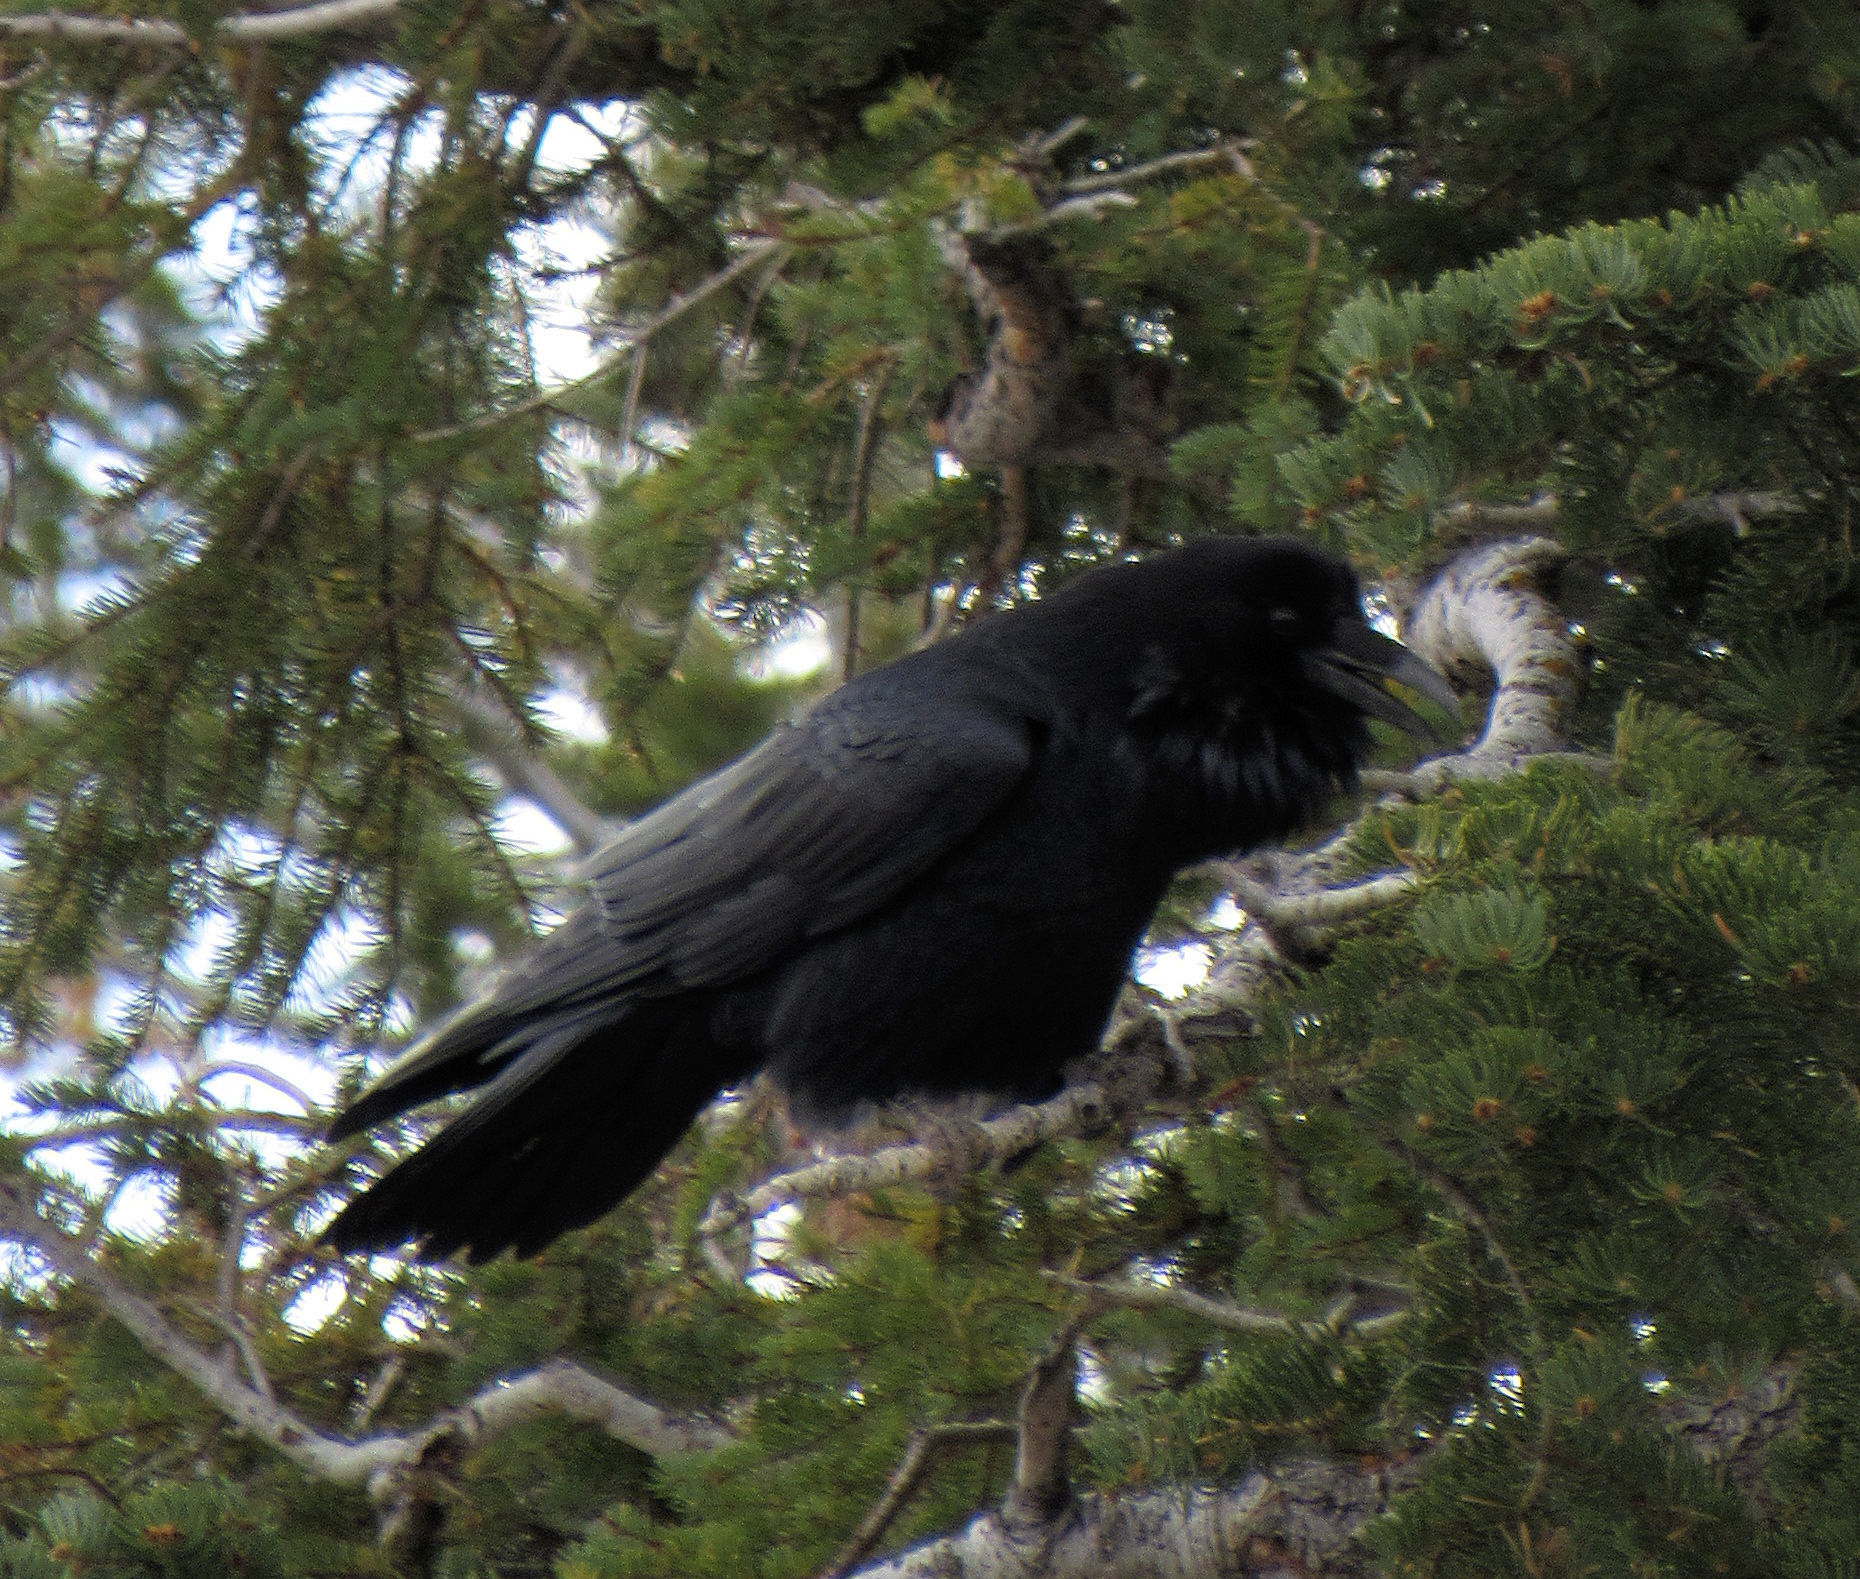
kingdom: Animalia
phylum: Chordata
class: Aves
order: Passeriformes
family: Corvidae
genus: Corvus
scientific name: Corvus corax
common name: Common raven
